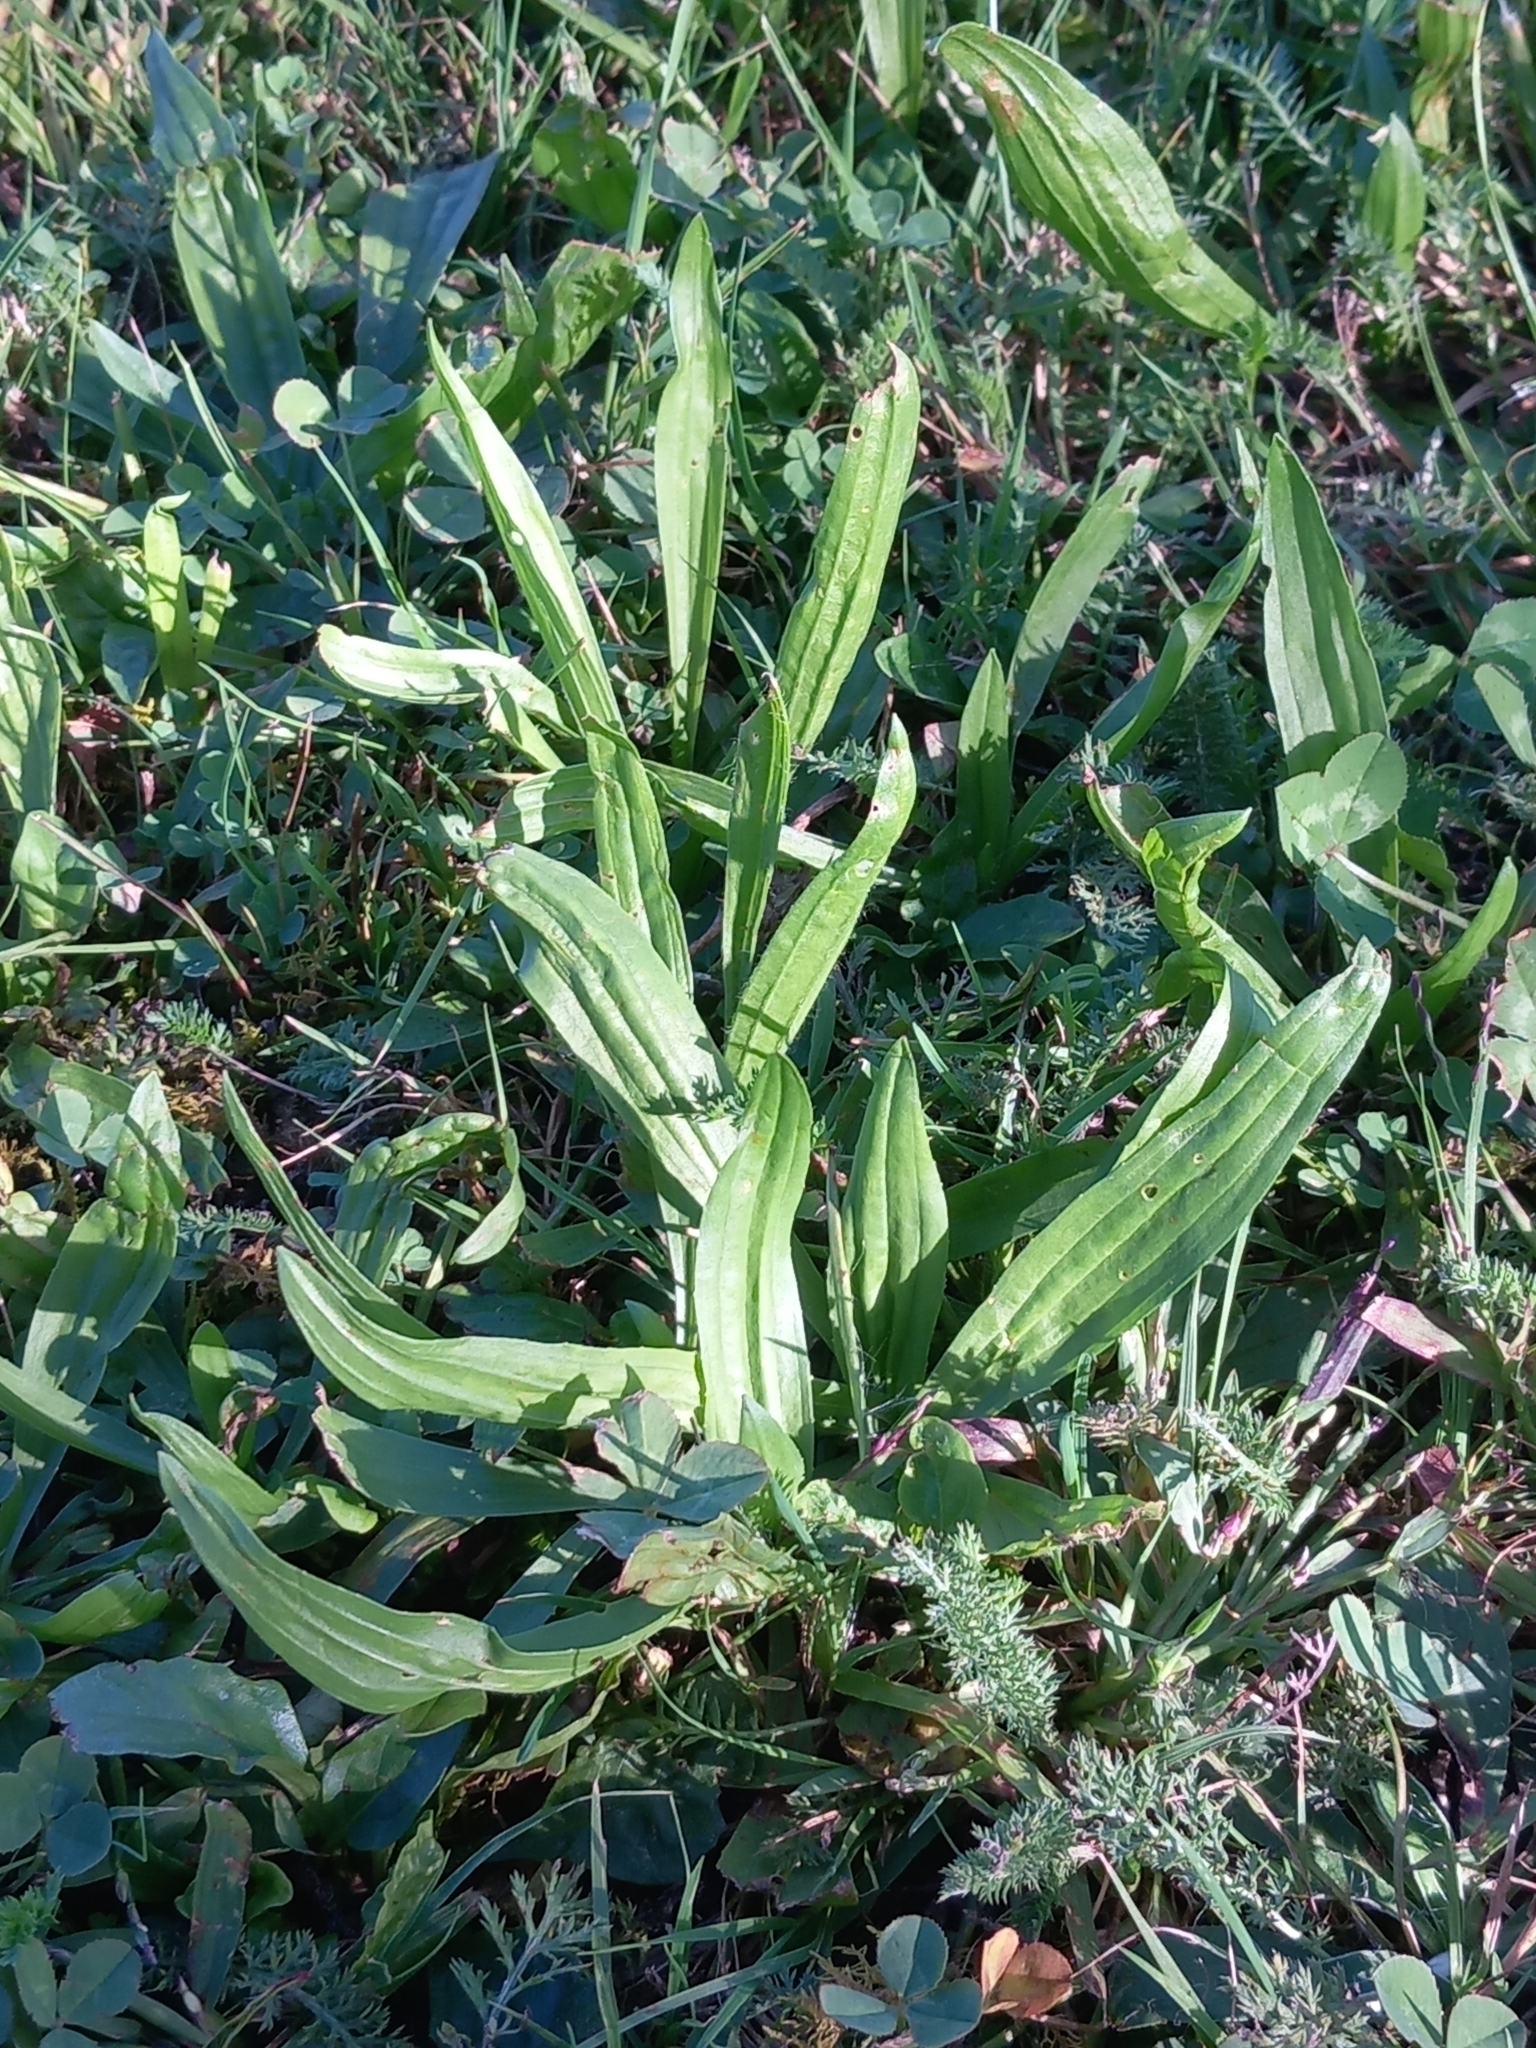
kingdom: Plantae
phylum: Tracheophyta
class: Magnoliopsida
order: Lamiales
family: Plantaginaceae
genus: Plantago
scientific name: Plantago lanceolata
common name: Ribwort plantain
